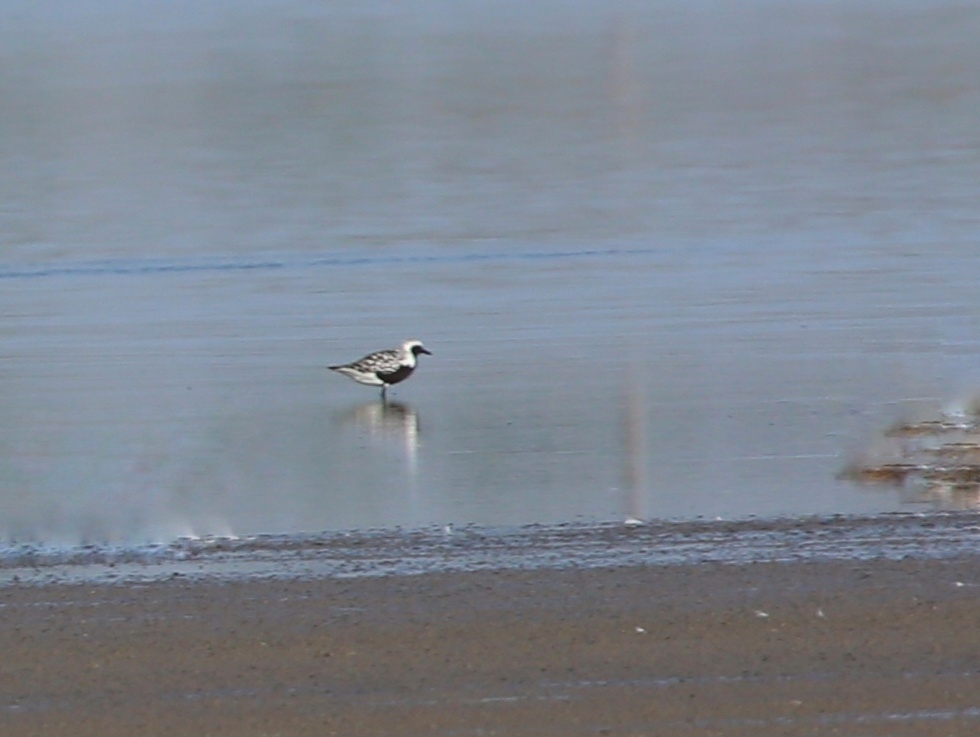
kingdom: Animalia
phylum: Chordata
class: Aves
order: Charadriiformes
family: Charadriidae
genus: Pluvialis
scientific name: Pluvialis squatarola
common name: Grey plover
